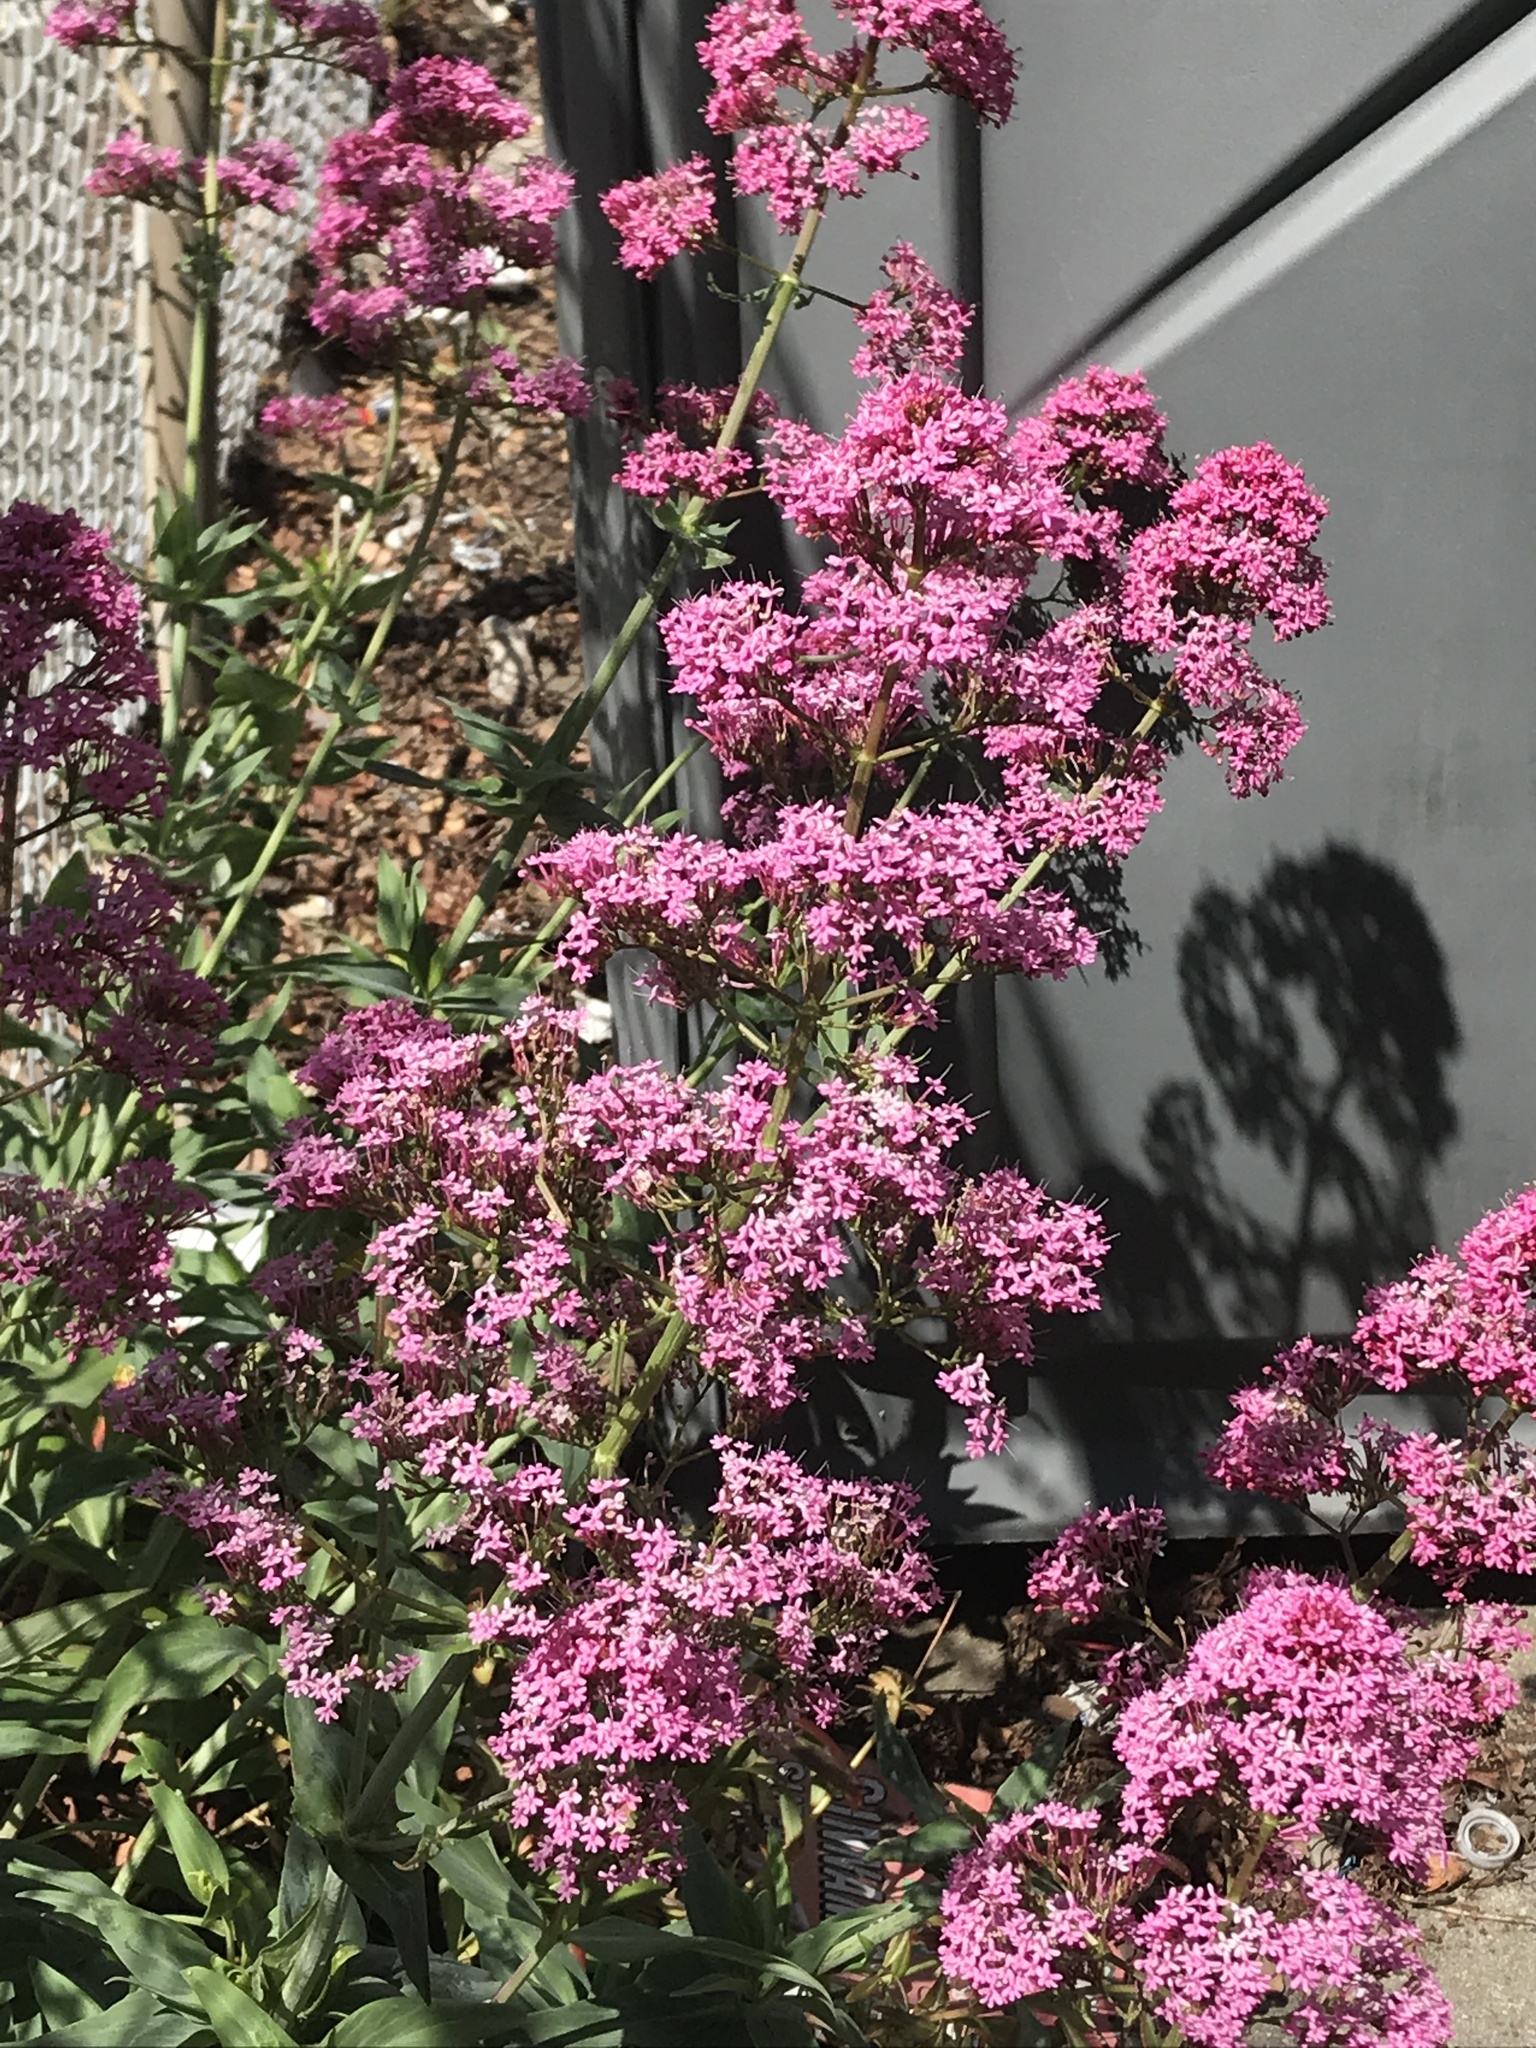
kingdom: Plantae
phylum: Tracheophyta
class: Magnoliopsida
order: Dipsacales
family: Caprifoliaceae
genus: Centranthus
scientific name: Centranthus ruber
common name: Red valerian
